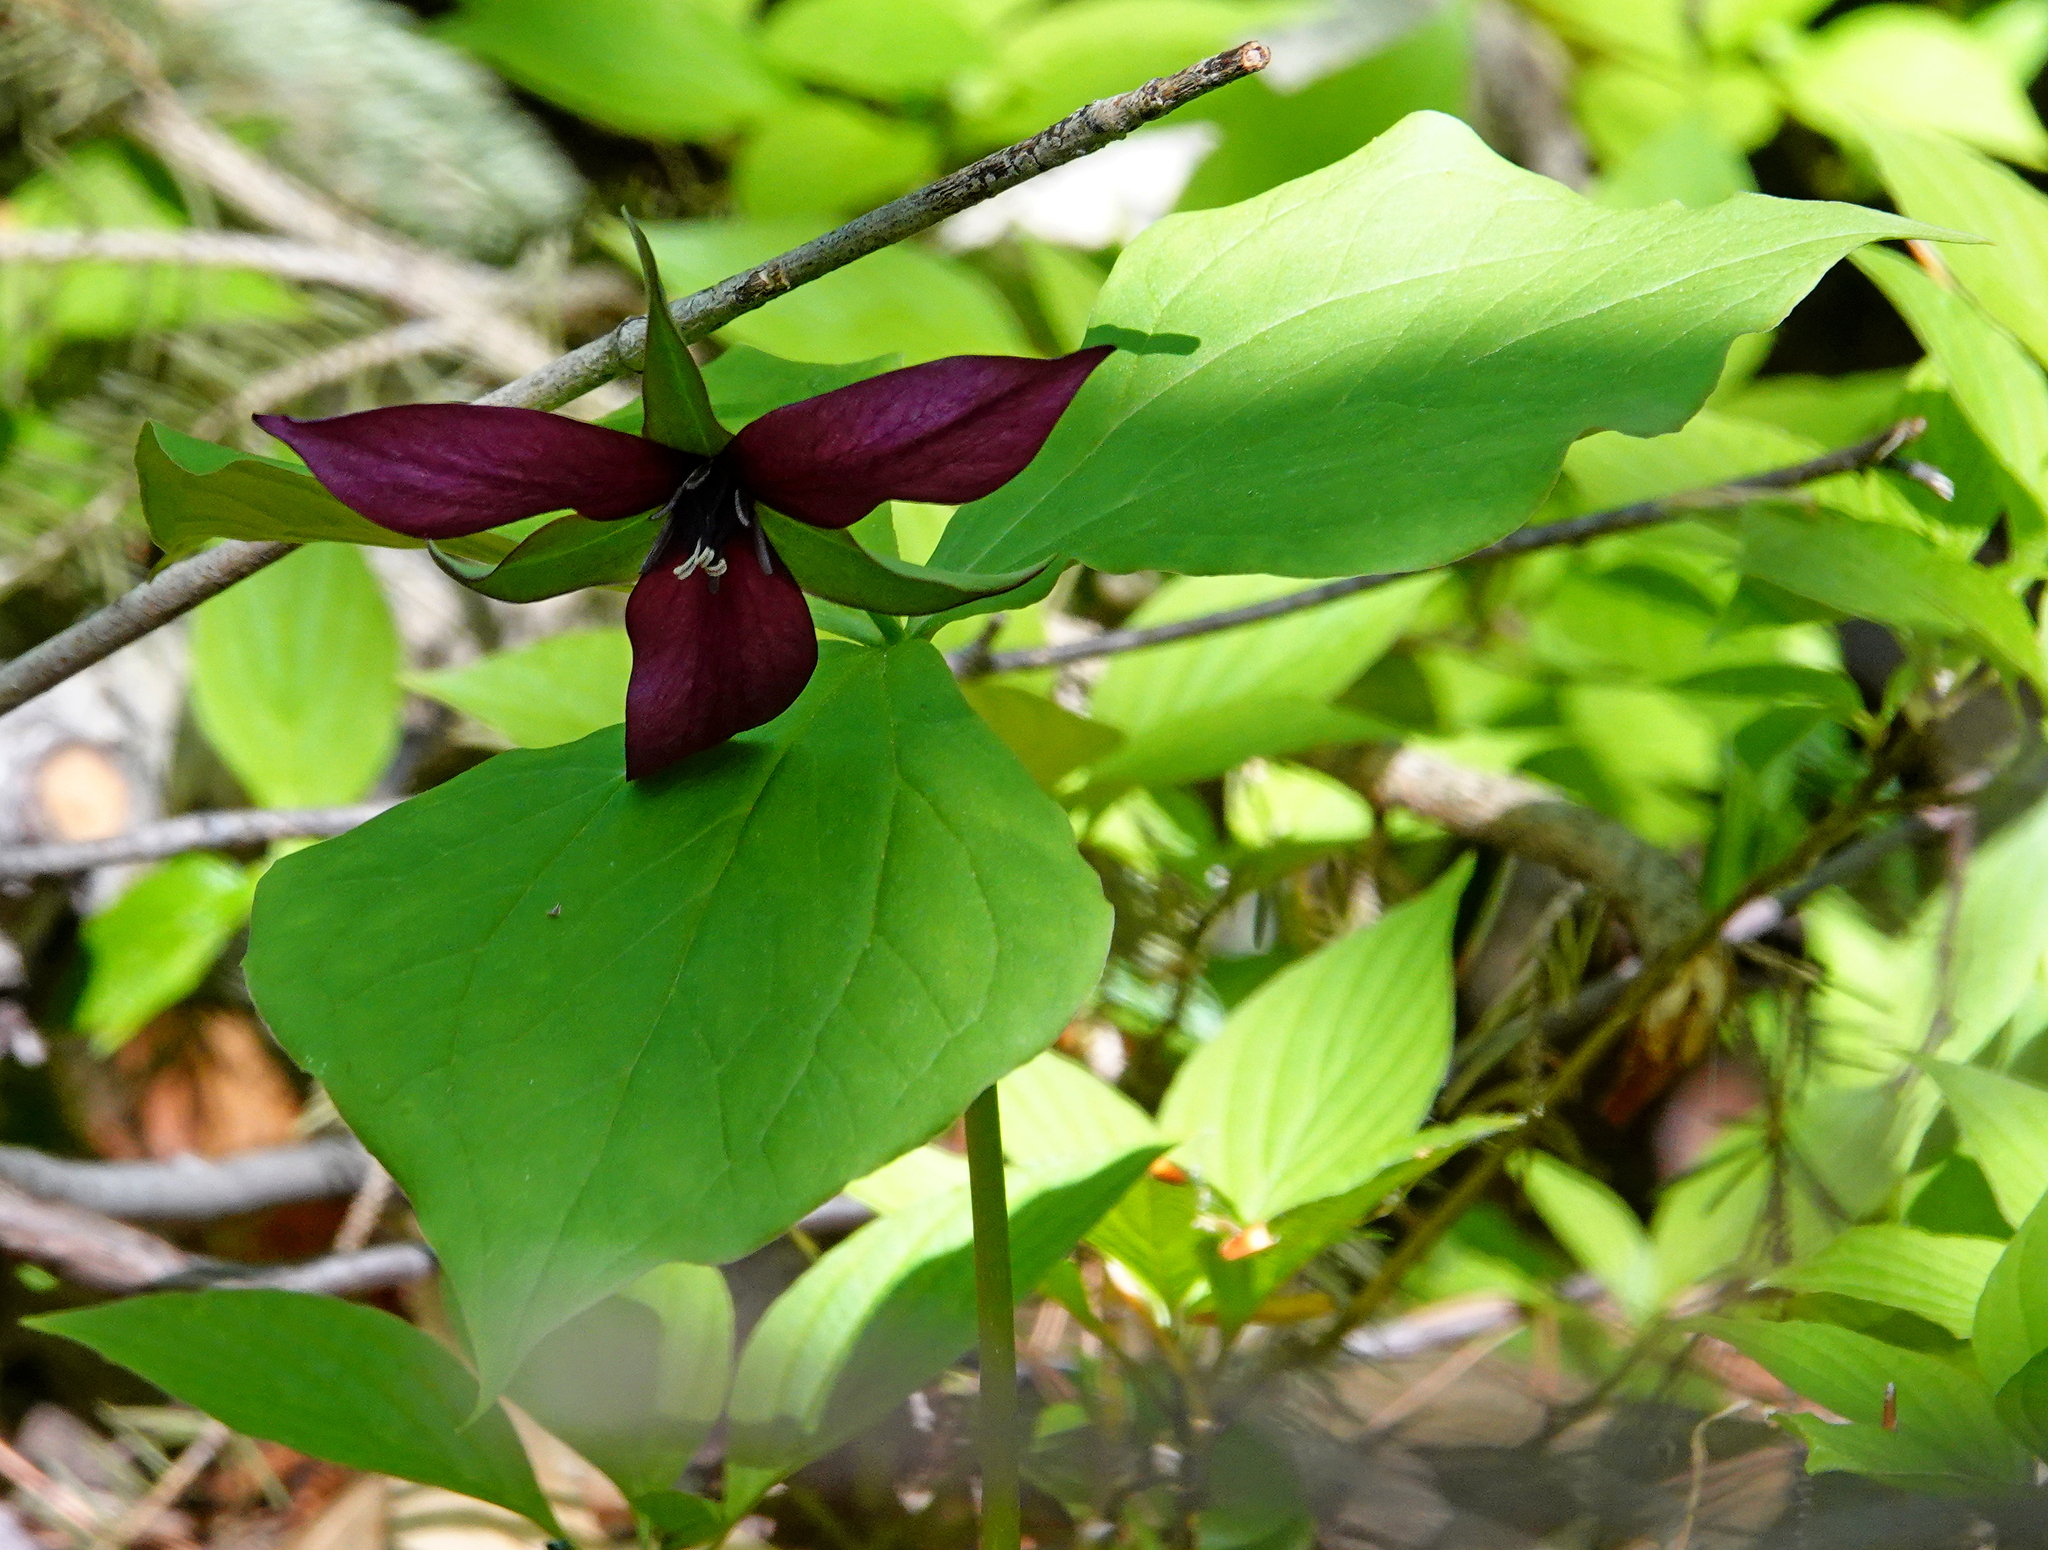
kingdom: Plantae
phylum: Tracheophyta
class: Liliopsida
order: Liliales
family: Melanthiaceae
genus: Trillium
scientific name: Trillium erectum
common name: Purple trillium
